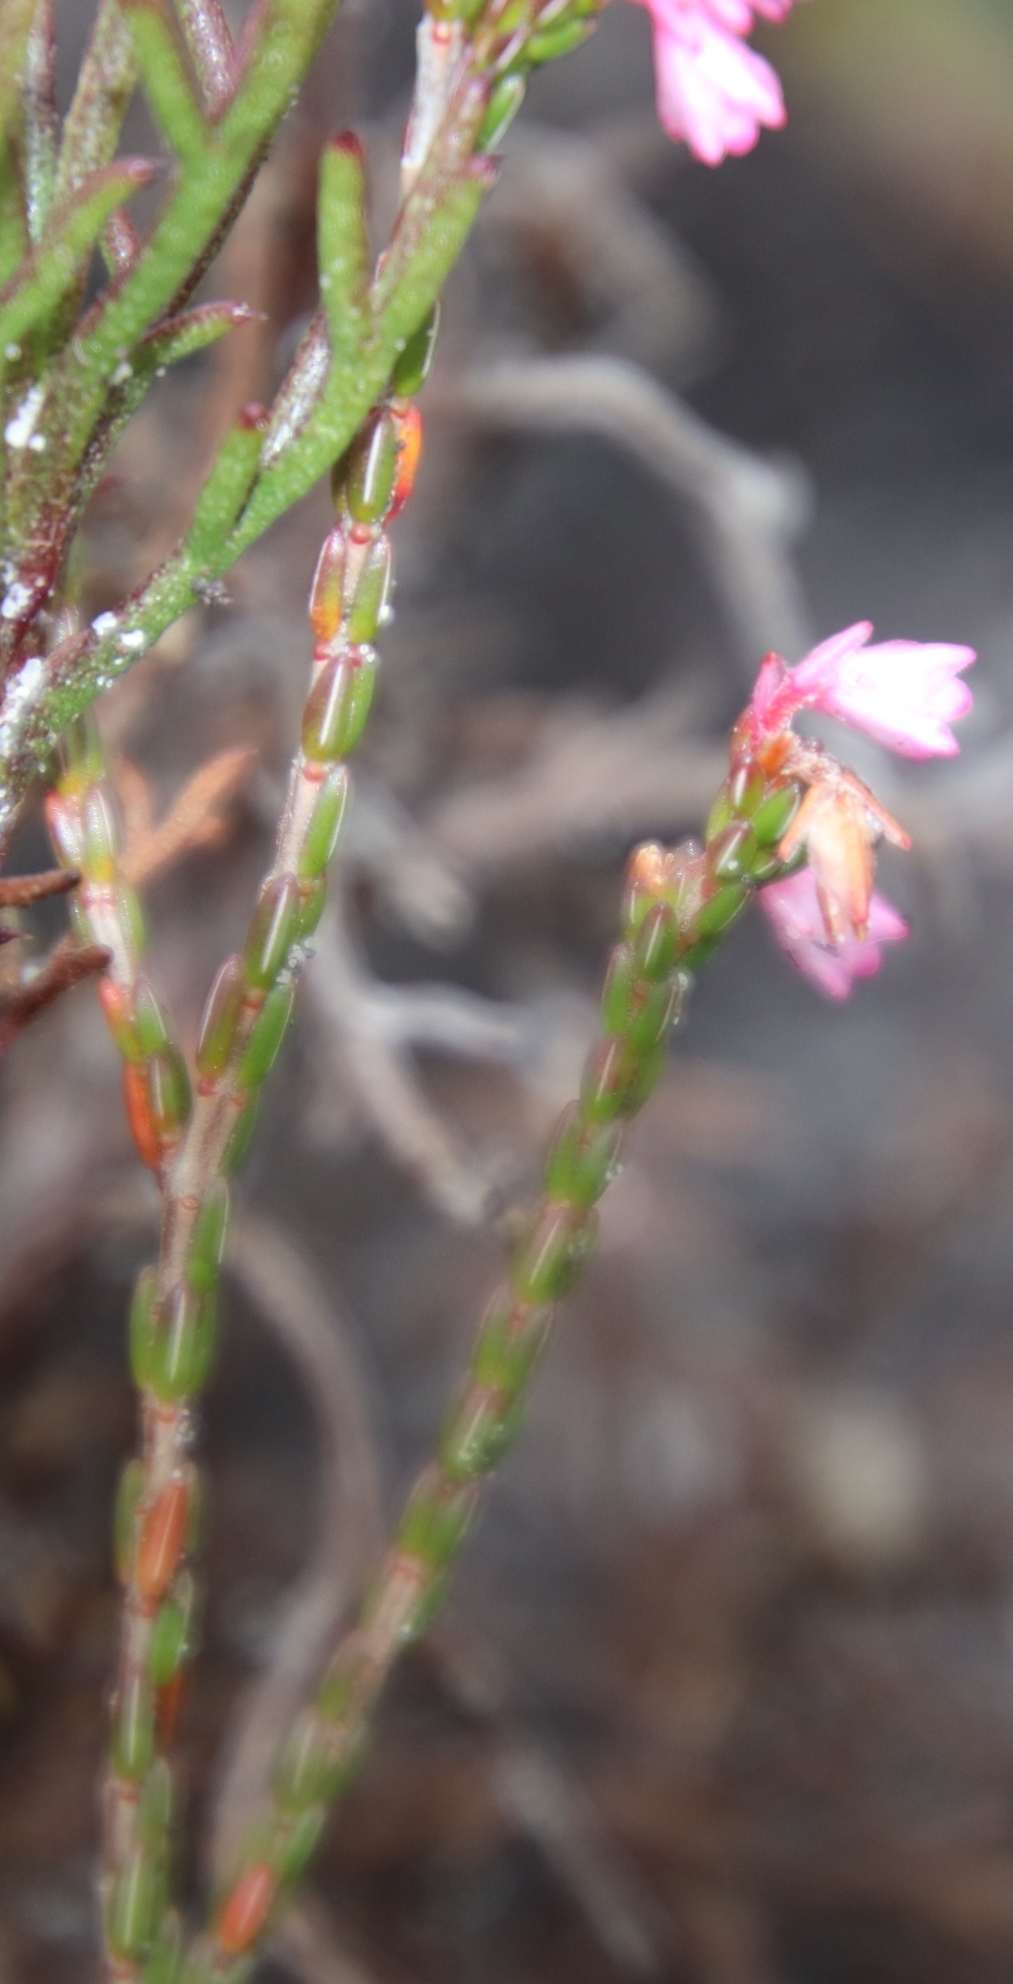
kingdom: Plantae
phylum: Tracheophyta
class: Magnoliopsida
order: Ericales
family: Ericaceae
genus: Erica
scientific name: Erica gnaphaloides
